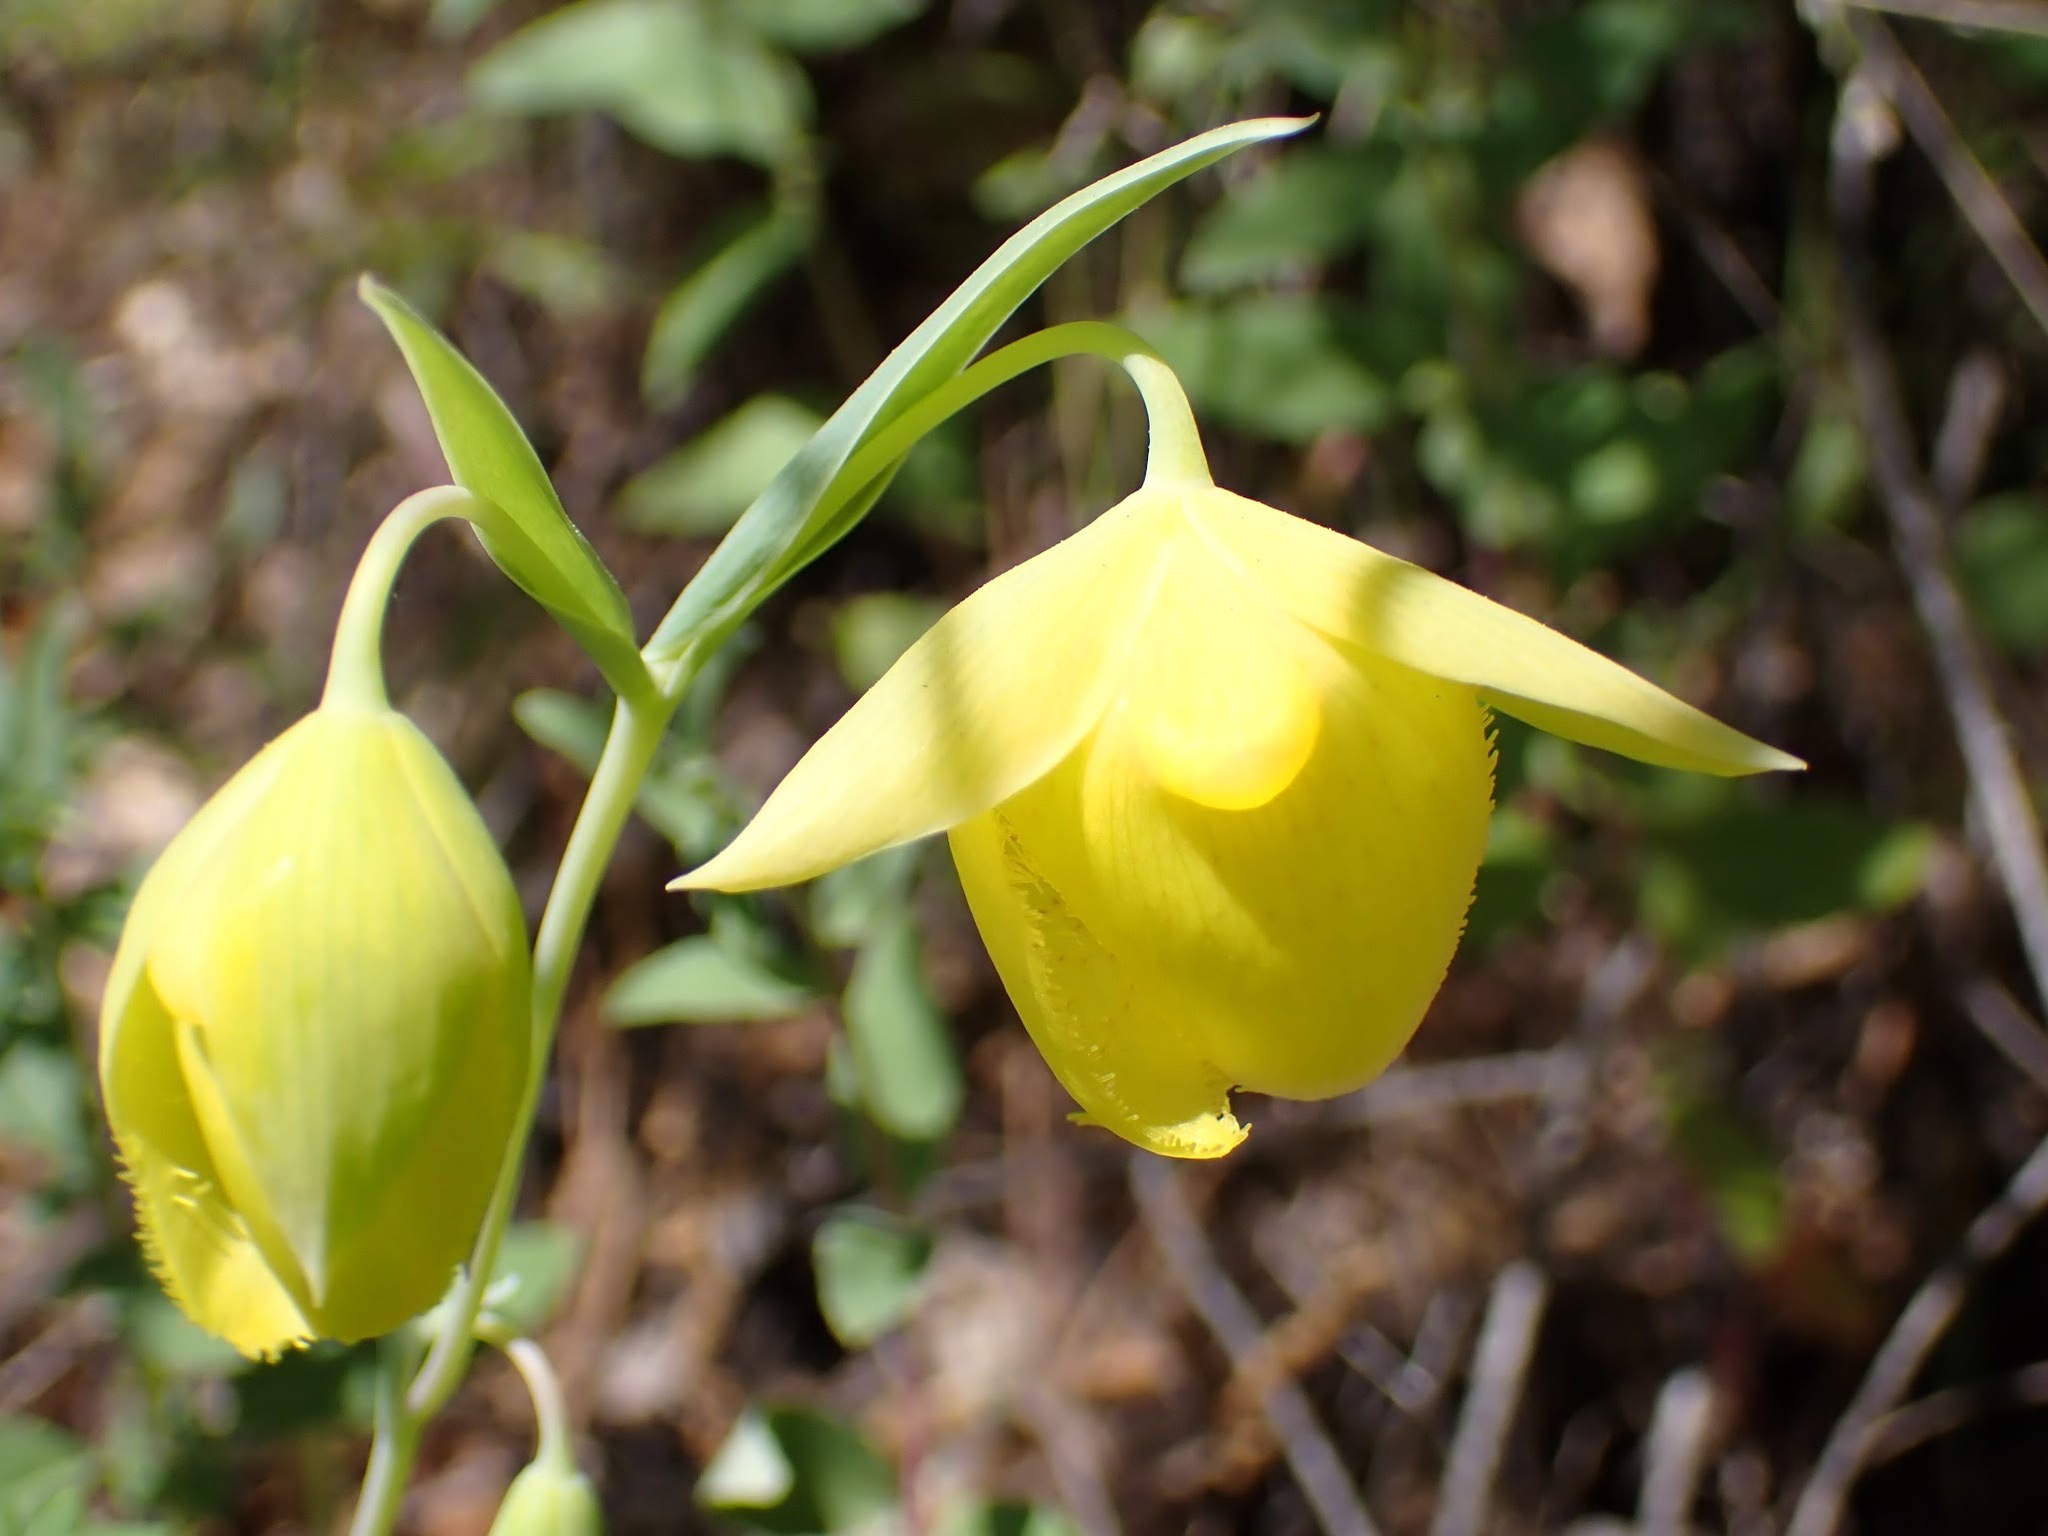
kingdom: Plantae
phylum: Tracheophyta
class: Liliopsida
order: Liliales
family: Liliaceae
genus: Calochortus
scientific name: Calochortus pulchellus
